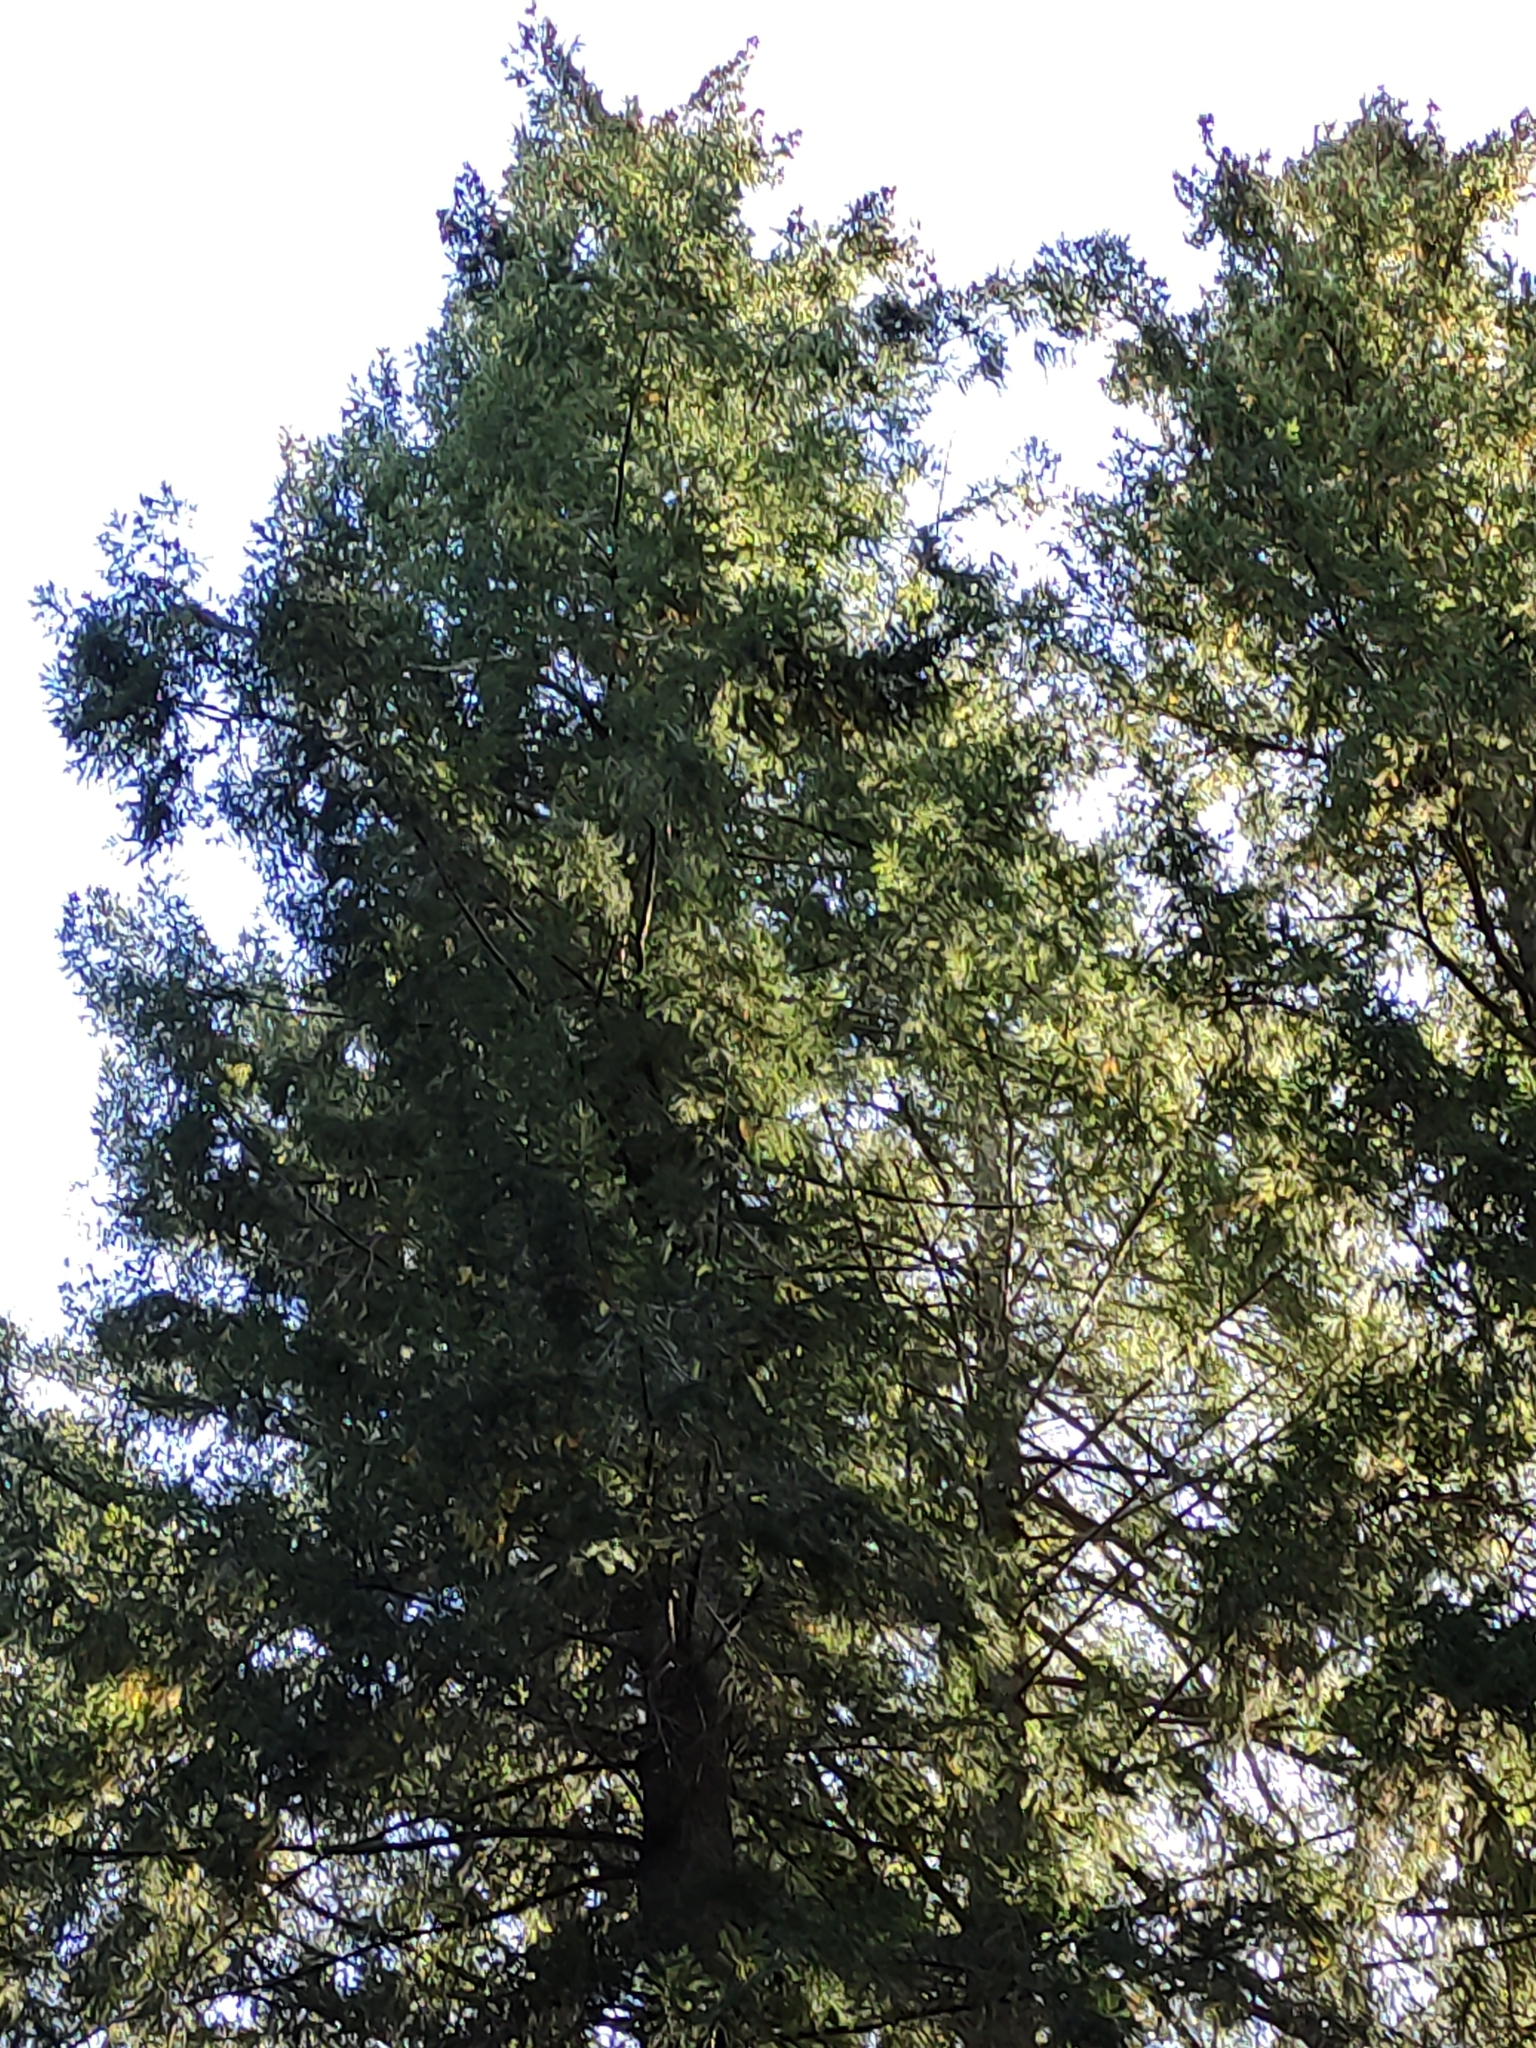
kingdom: Plantae
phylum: Tracheophyta
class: Pinopsida
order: Pinales
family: Pinaceae
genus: Pseudotsuga
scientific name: Pseudotsuga menziesii
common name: Douglas fir
